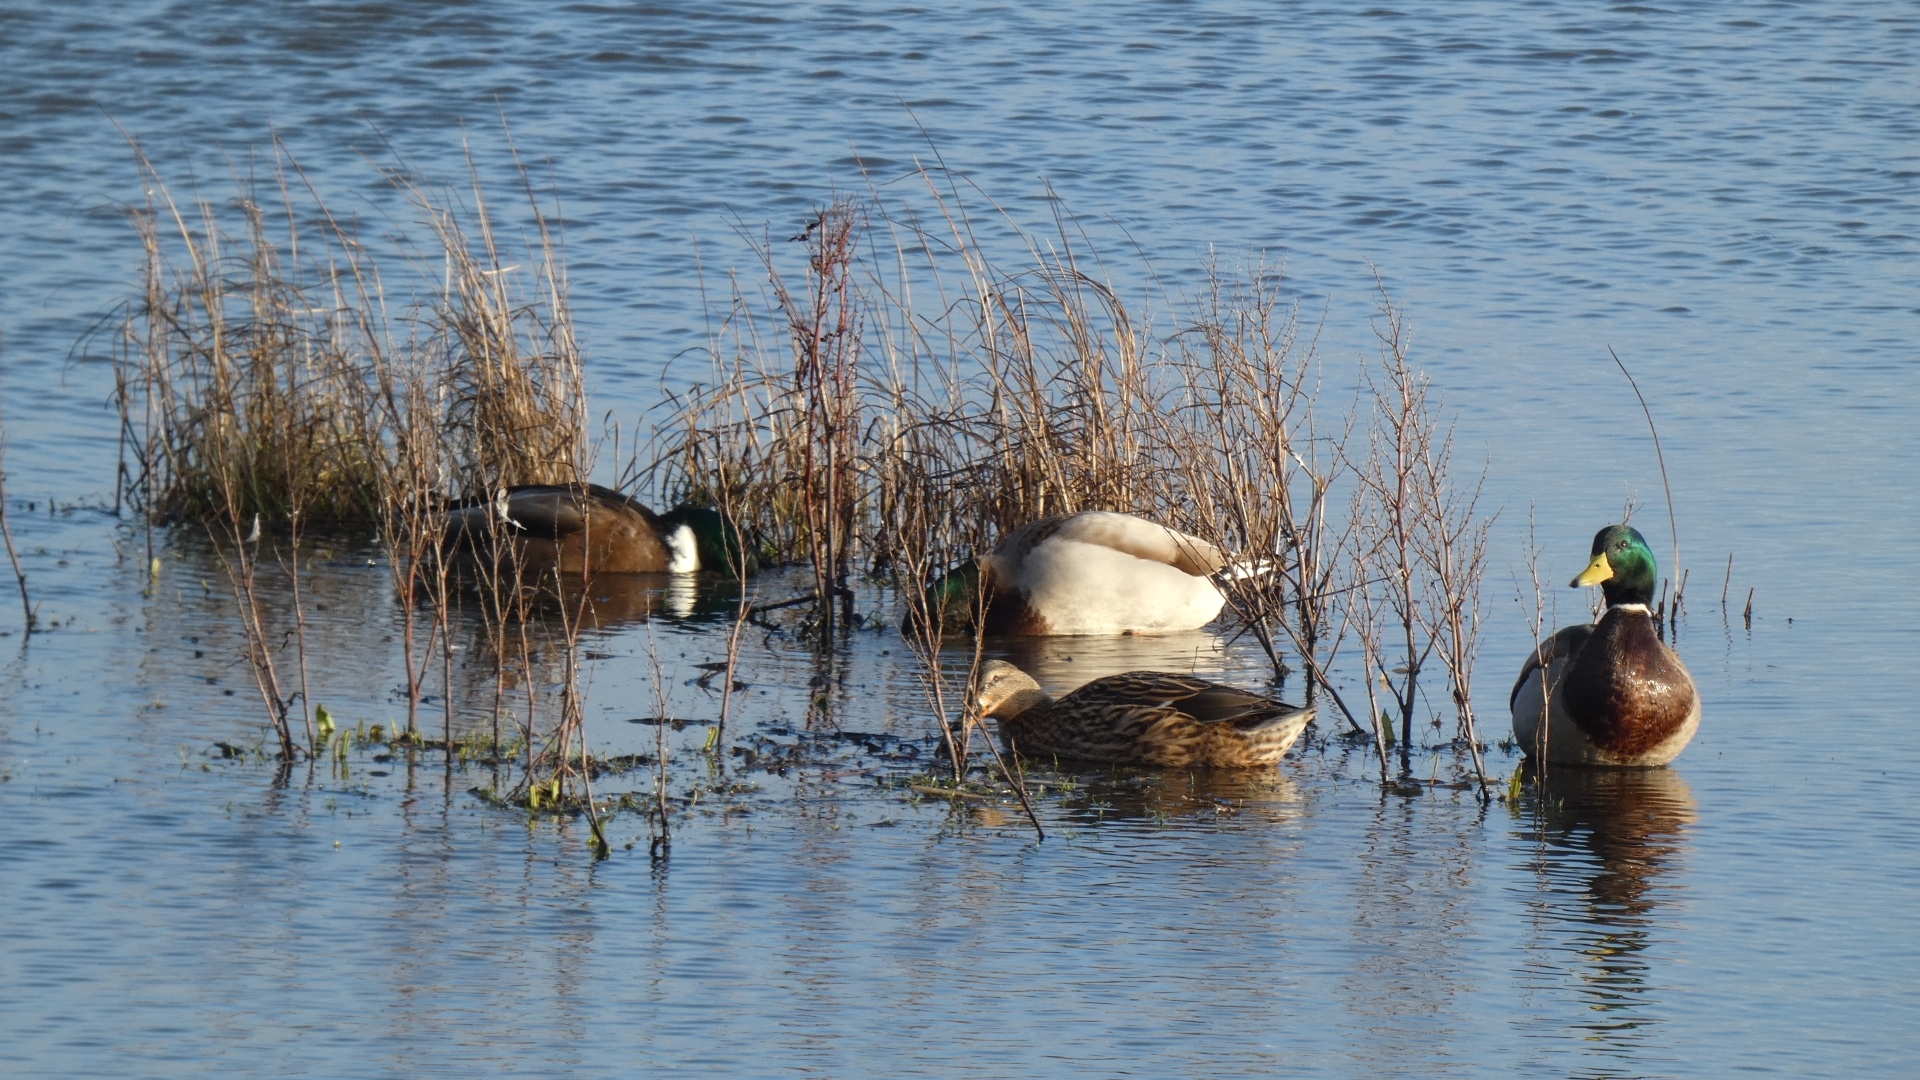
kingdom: Animalia
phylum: Chordata
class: Aves
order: Anseriformes
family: Anatidae
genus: Anas
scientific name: Anas platyrhynchos
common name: Mallard
